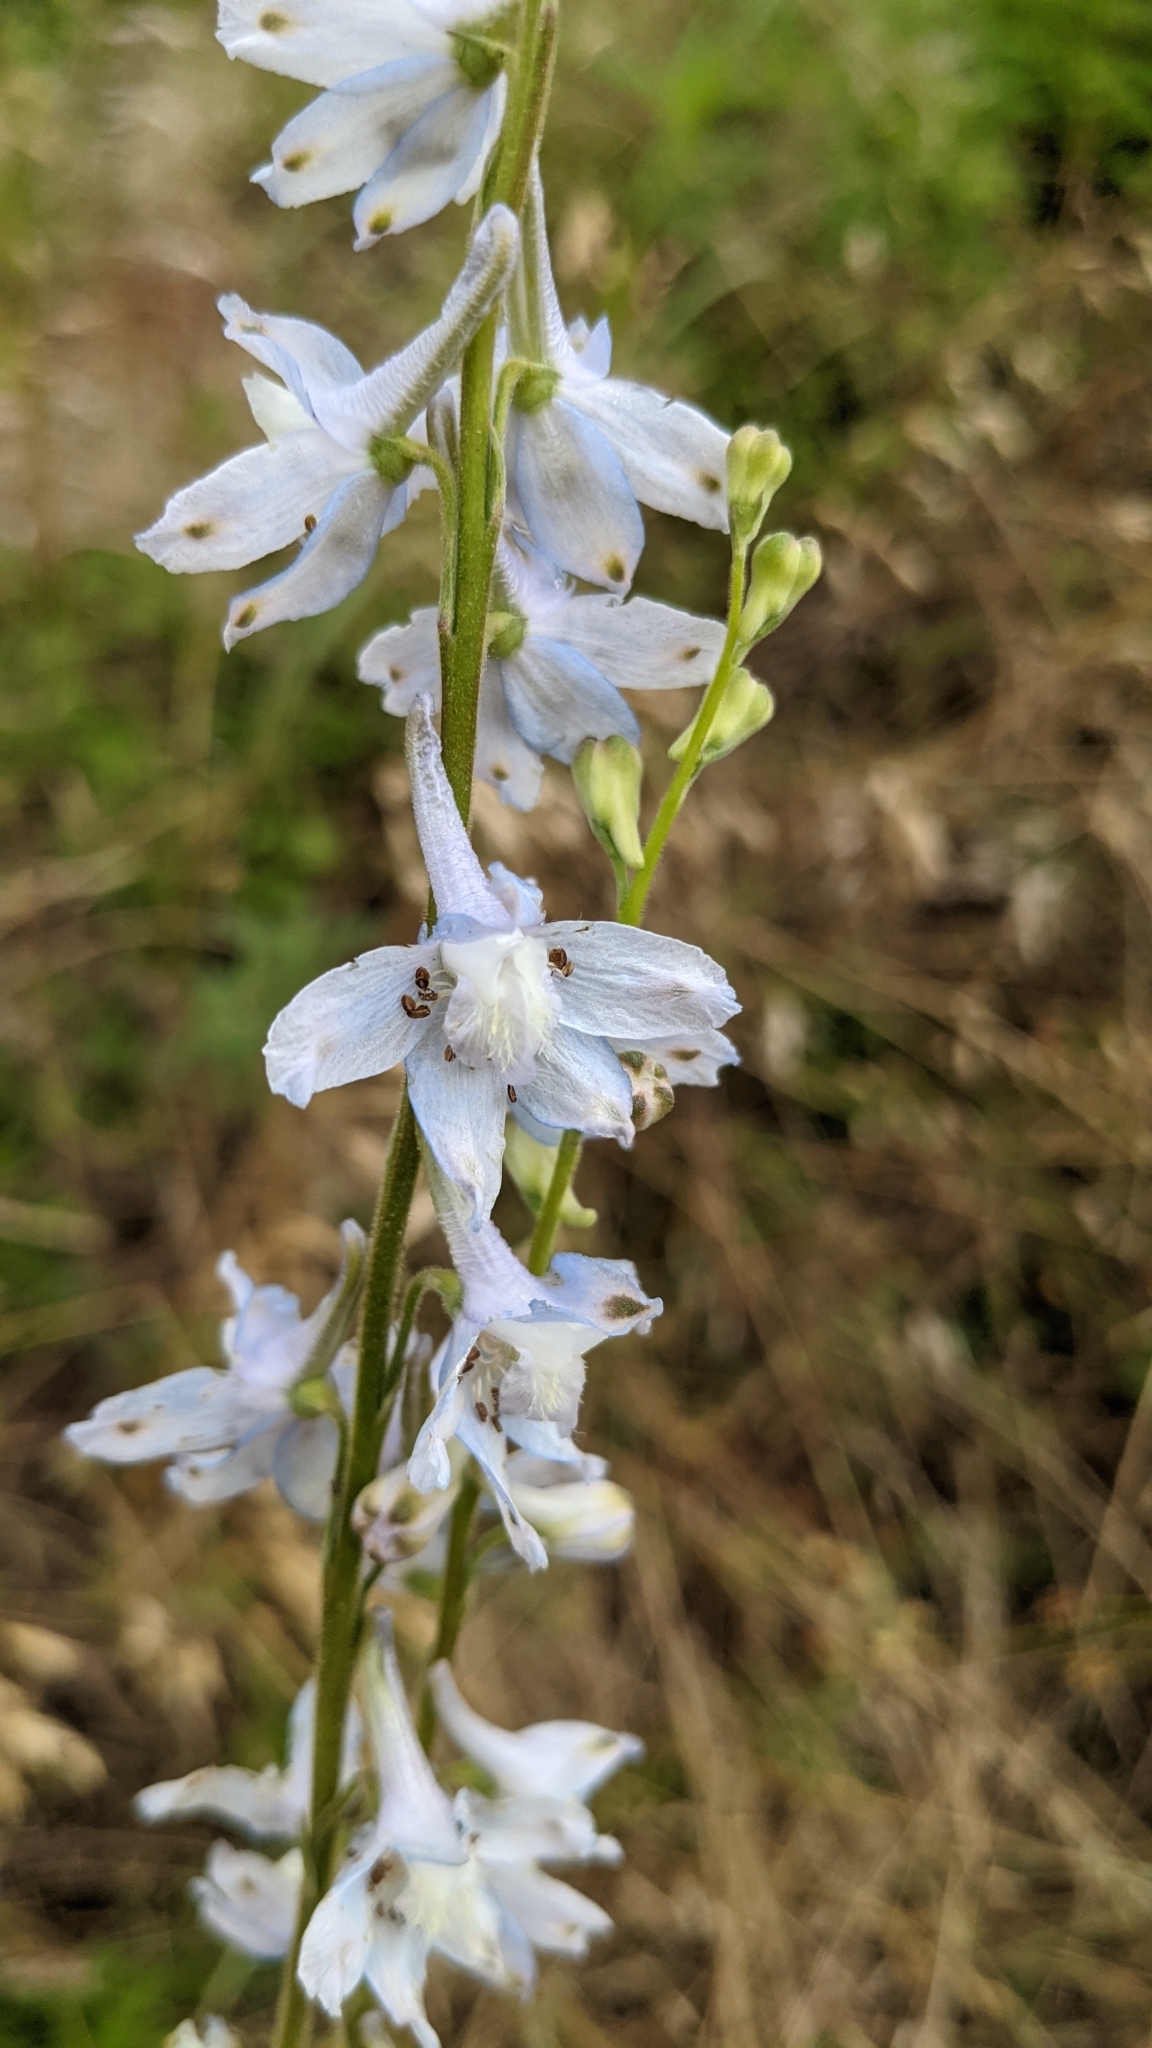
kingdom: Plantae
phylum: Tracheophyta
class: Magnoliopsida
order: Ranunculales
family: Ranunculaceae
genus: Delphinium
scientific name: Delphinium carolinianum
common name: Carolina larkspur
